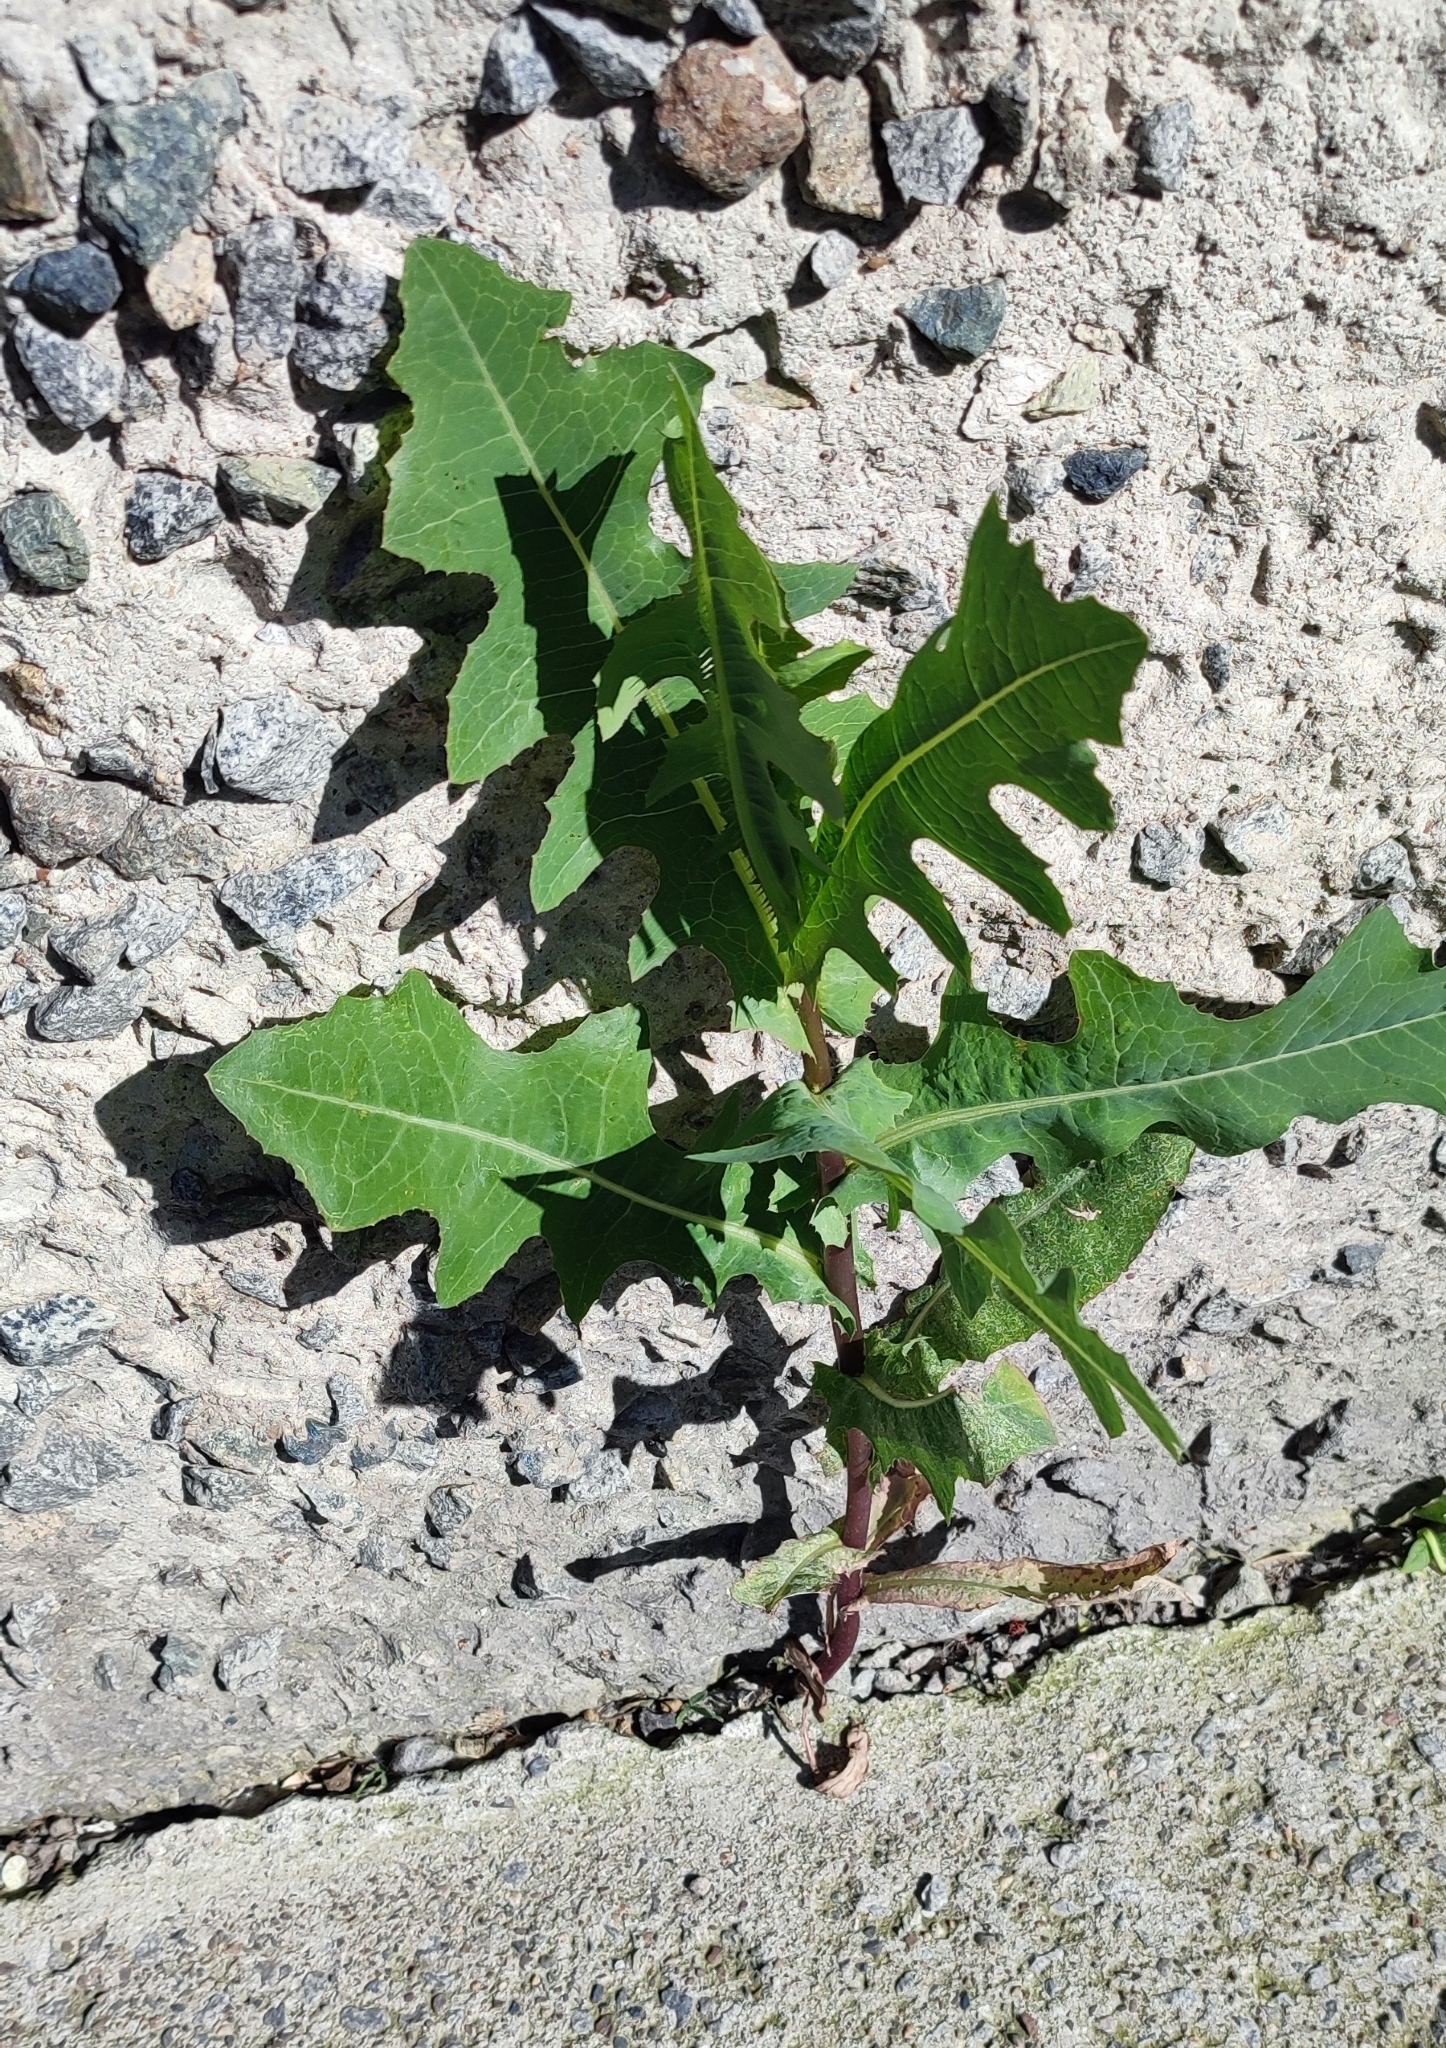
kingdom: Plantae
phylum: Tracheophyta
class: Magnoliopsida
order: Asterales
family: Asteraceae
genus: Lactuca
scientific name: Lactuca serriola
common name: Prickly lettuce
